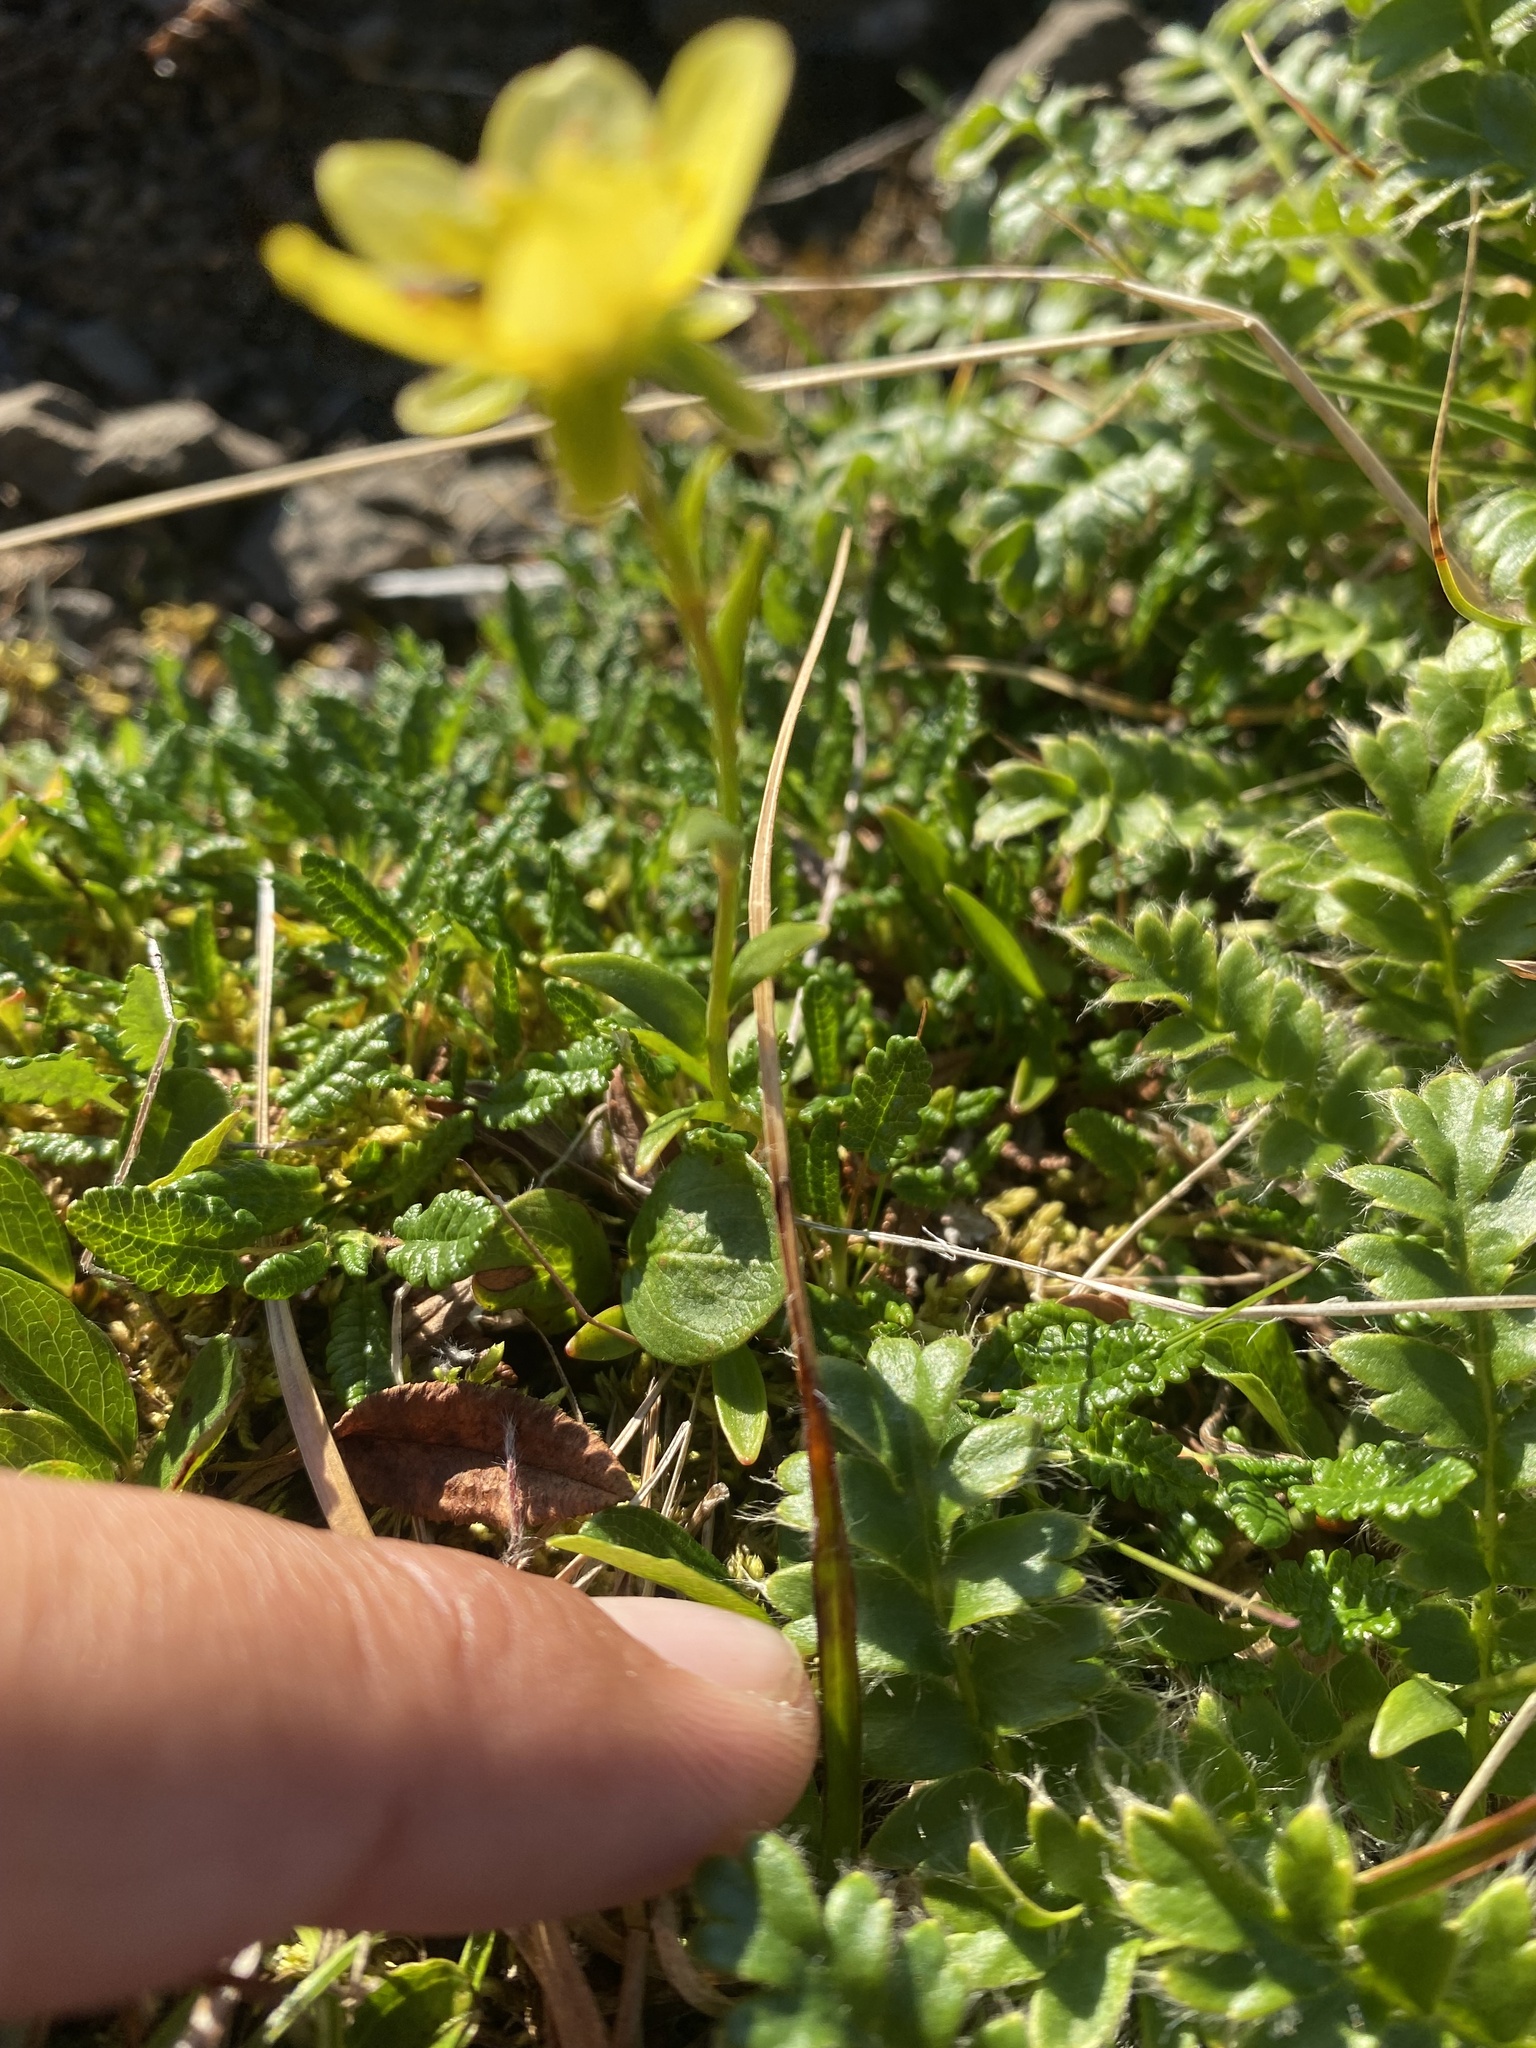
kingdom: Plantae
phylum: Tracheophyta
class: Magnoliopsida
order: Saxifragales
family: Saxifragaceae
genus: Saxifraga
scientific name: Saxifraga hirculus
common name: Yellow marsh saxifrage
